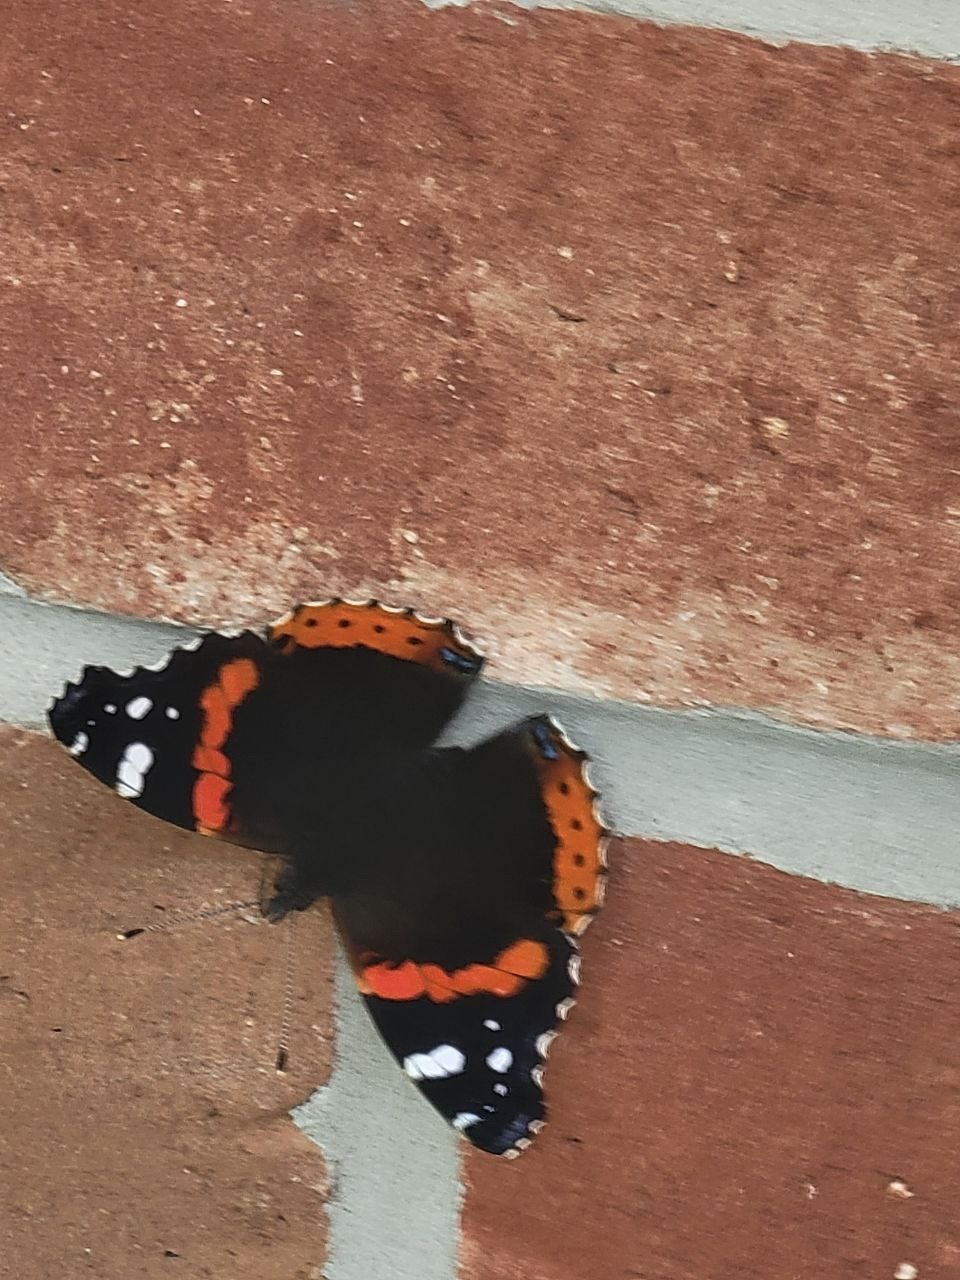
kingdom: Animalia
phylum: Arthropoda
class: Insecta
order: Lepidoptera
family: Nymphalidae
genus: Vanessa
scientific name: Vanessa atalanta
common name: Red admiral
